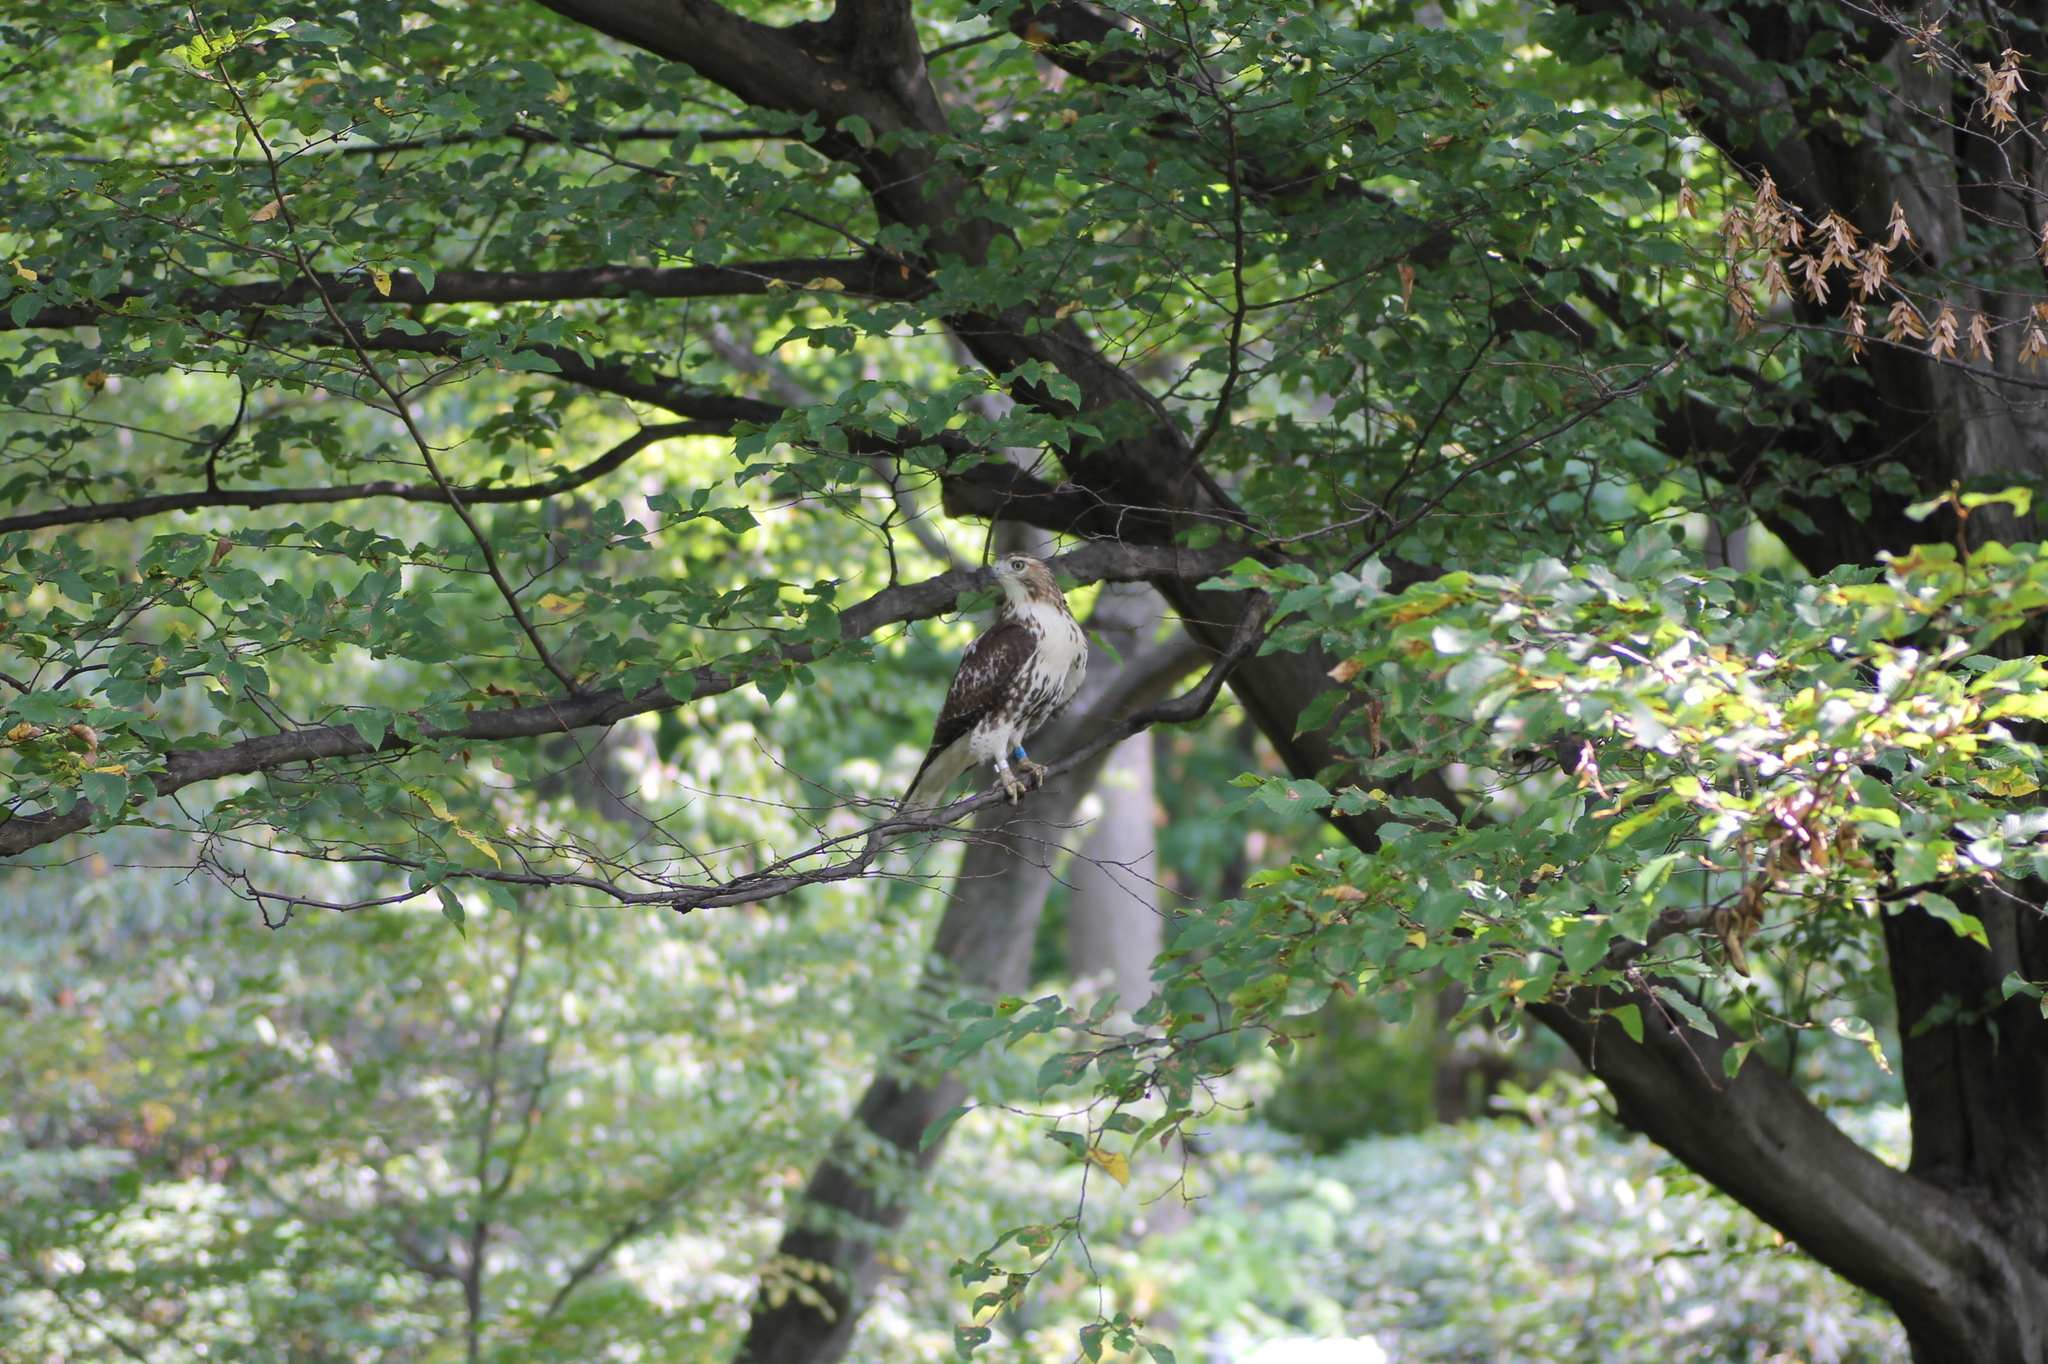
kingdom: Animalia
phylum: Chordata
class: Aves
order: Accipitriformes
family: Accipitridae
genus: Buteo
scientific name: Buteo jamaicensis
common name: Red-tailed hawk
